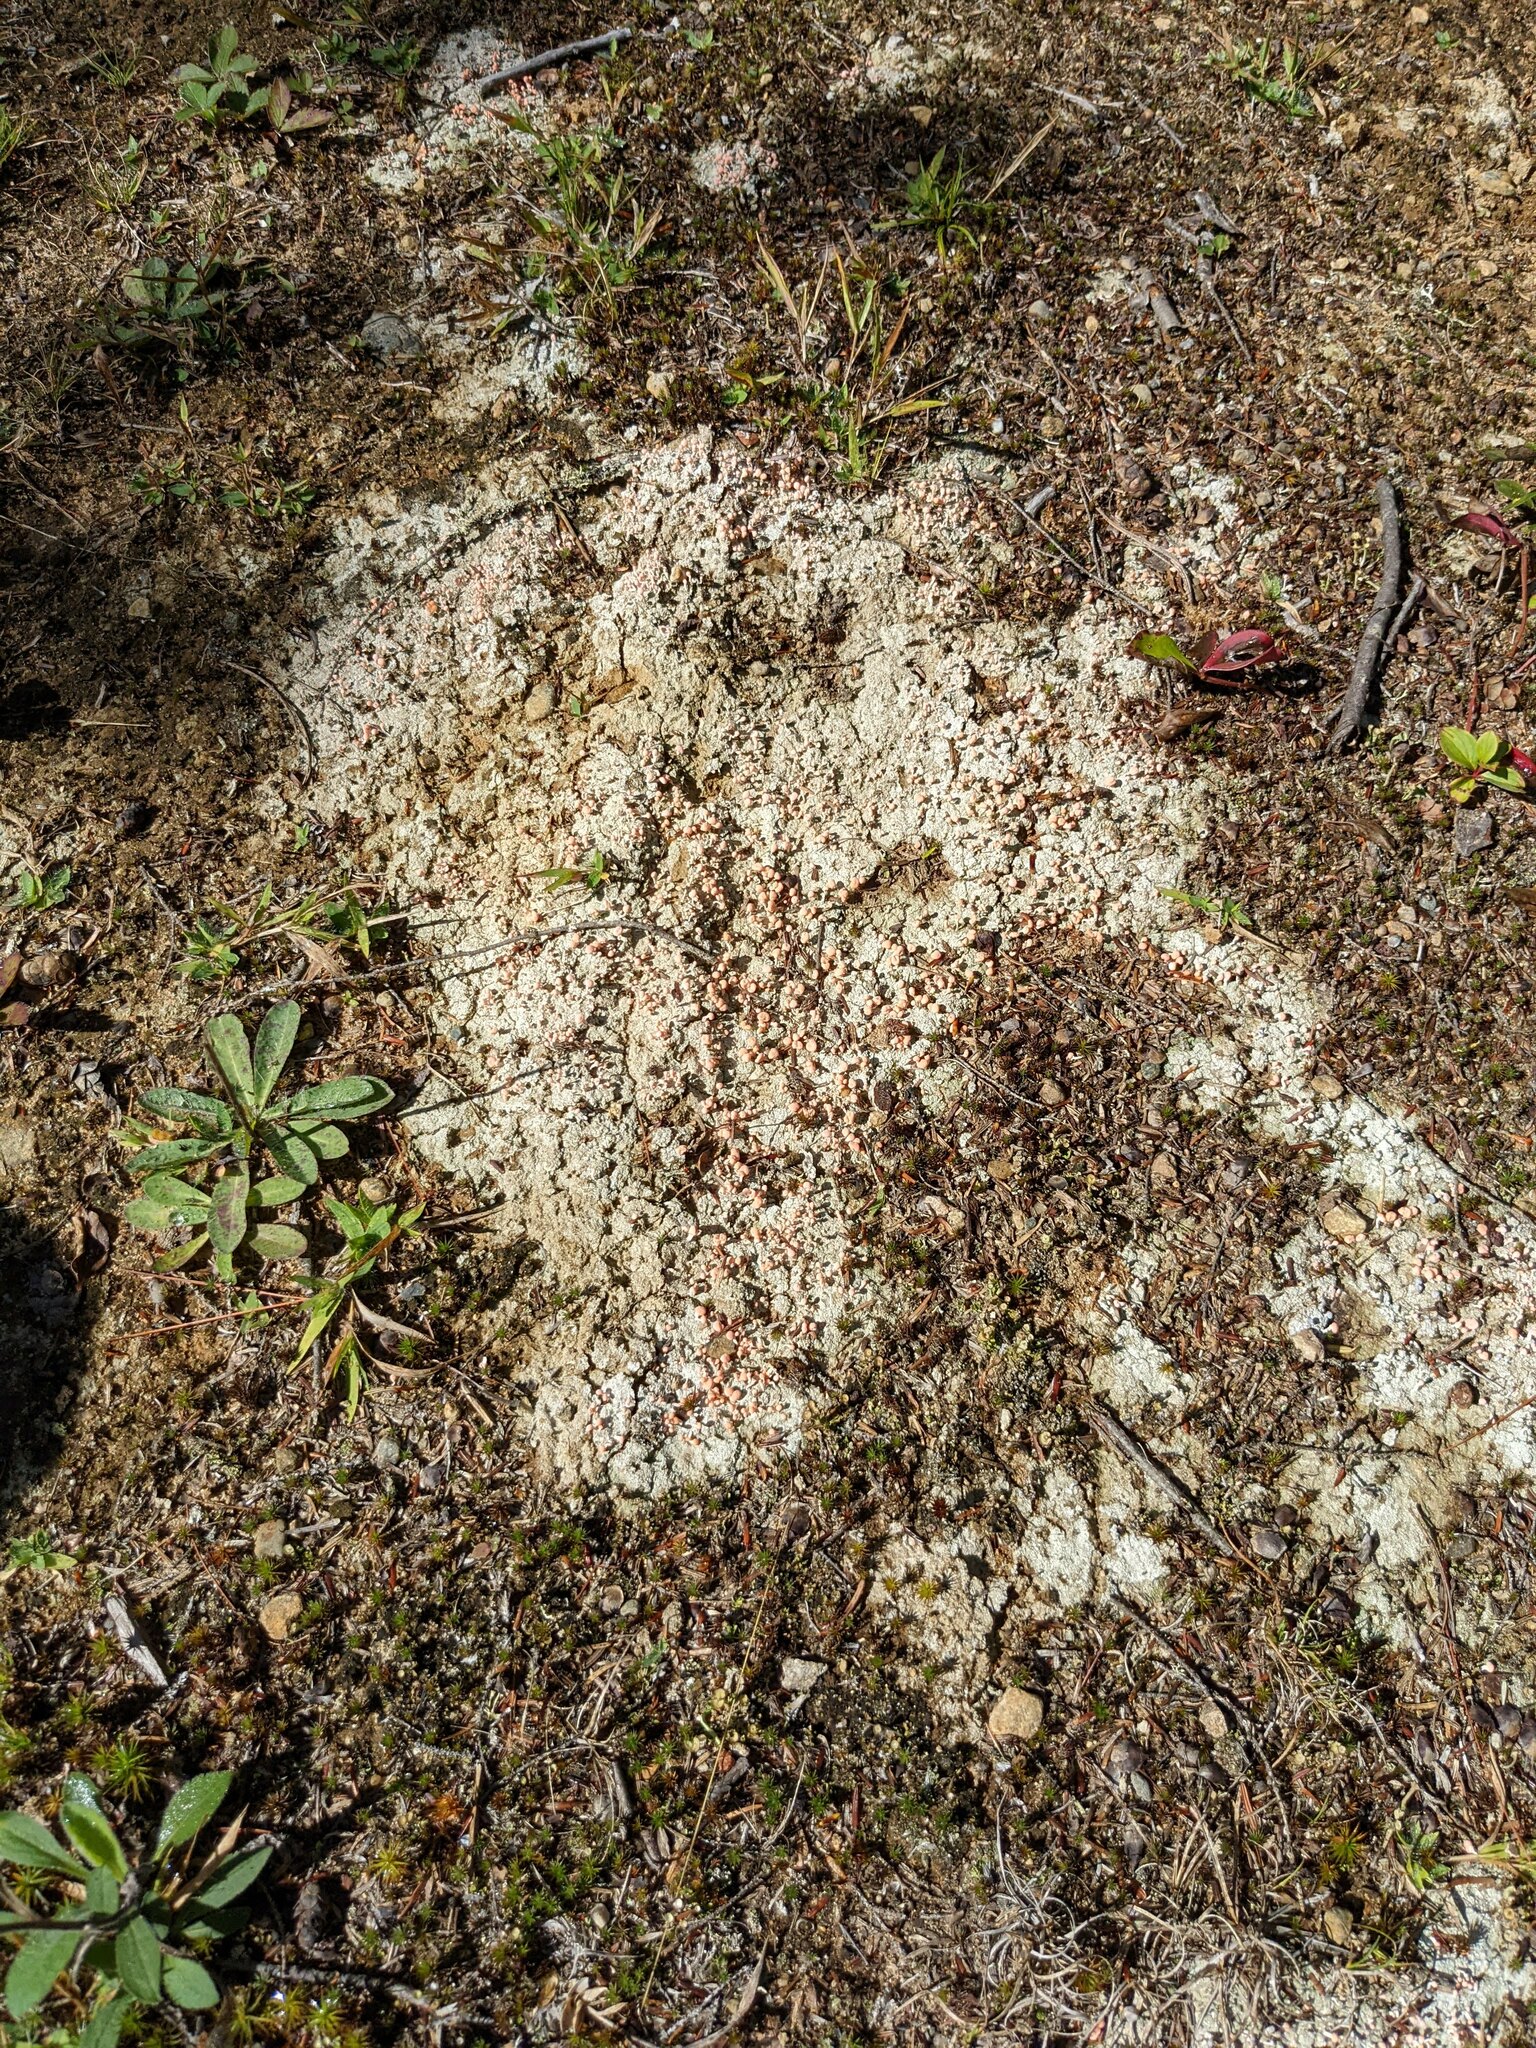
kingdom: Fungi
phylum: Ascomycota
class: Lecanoromycetes
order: Pertusariales
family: Icmadophilaceae
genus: Dibaeis
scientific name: Dibaeis baeomyces
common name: Pink earth lichen
